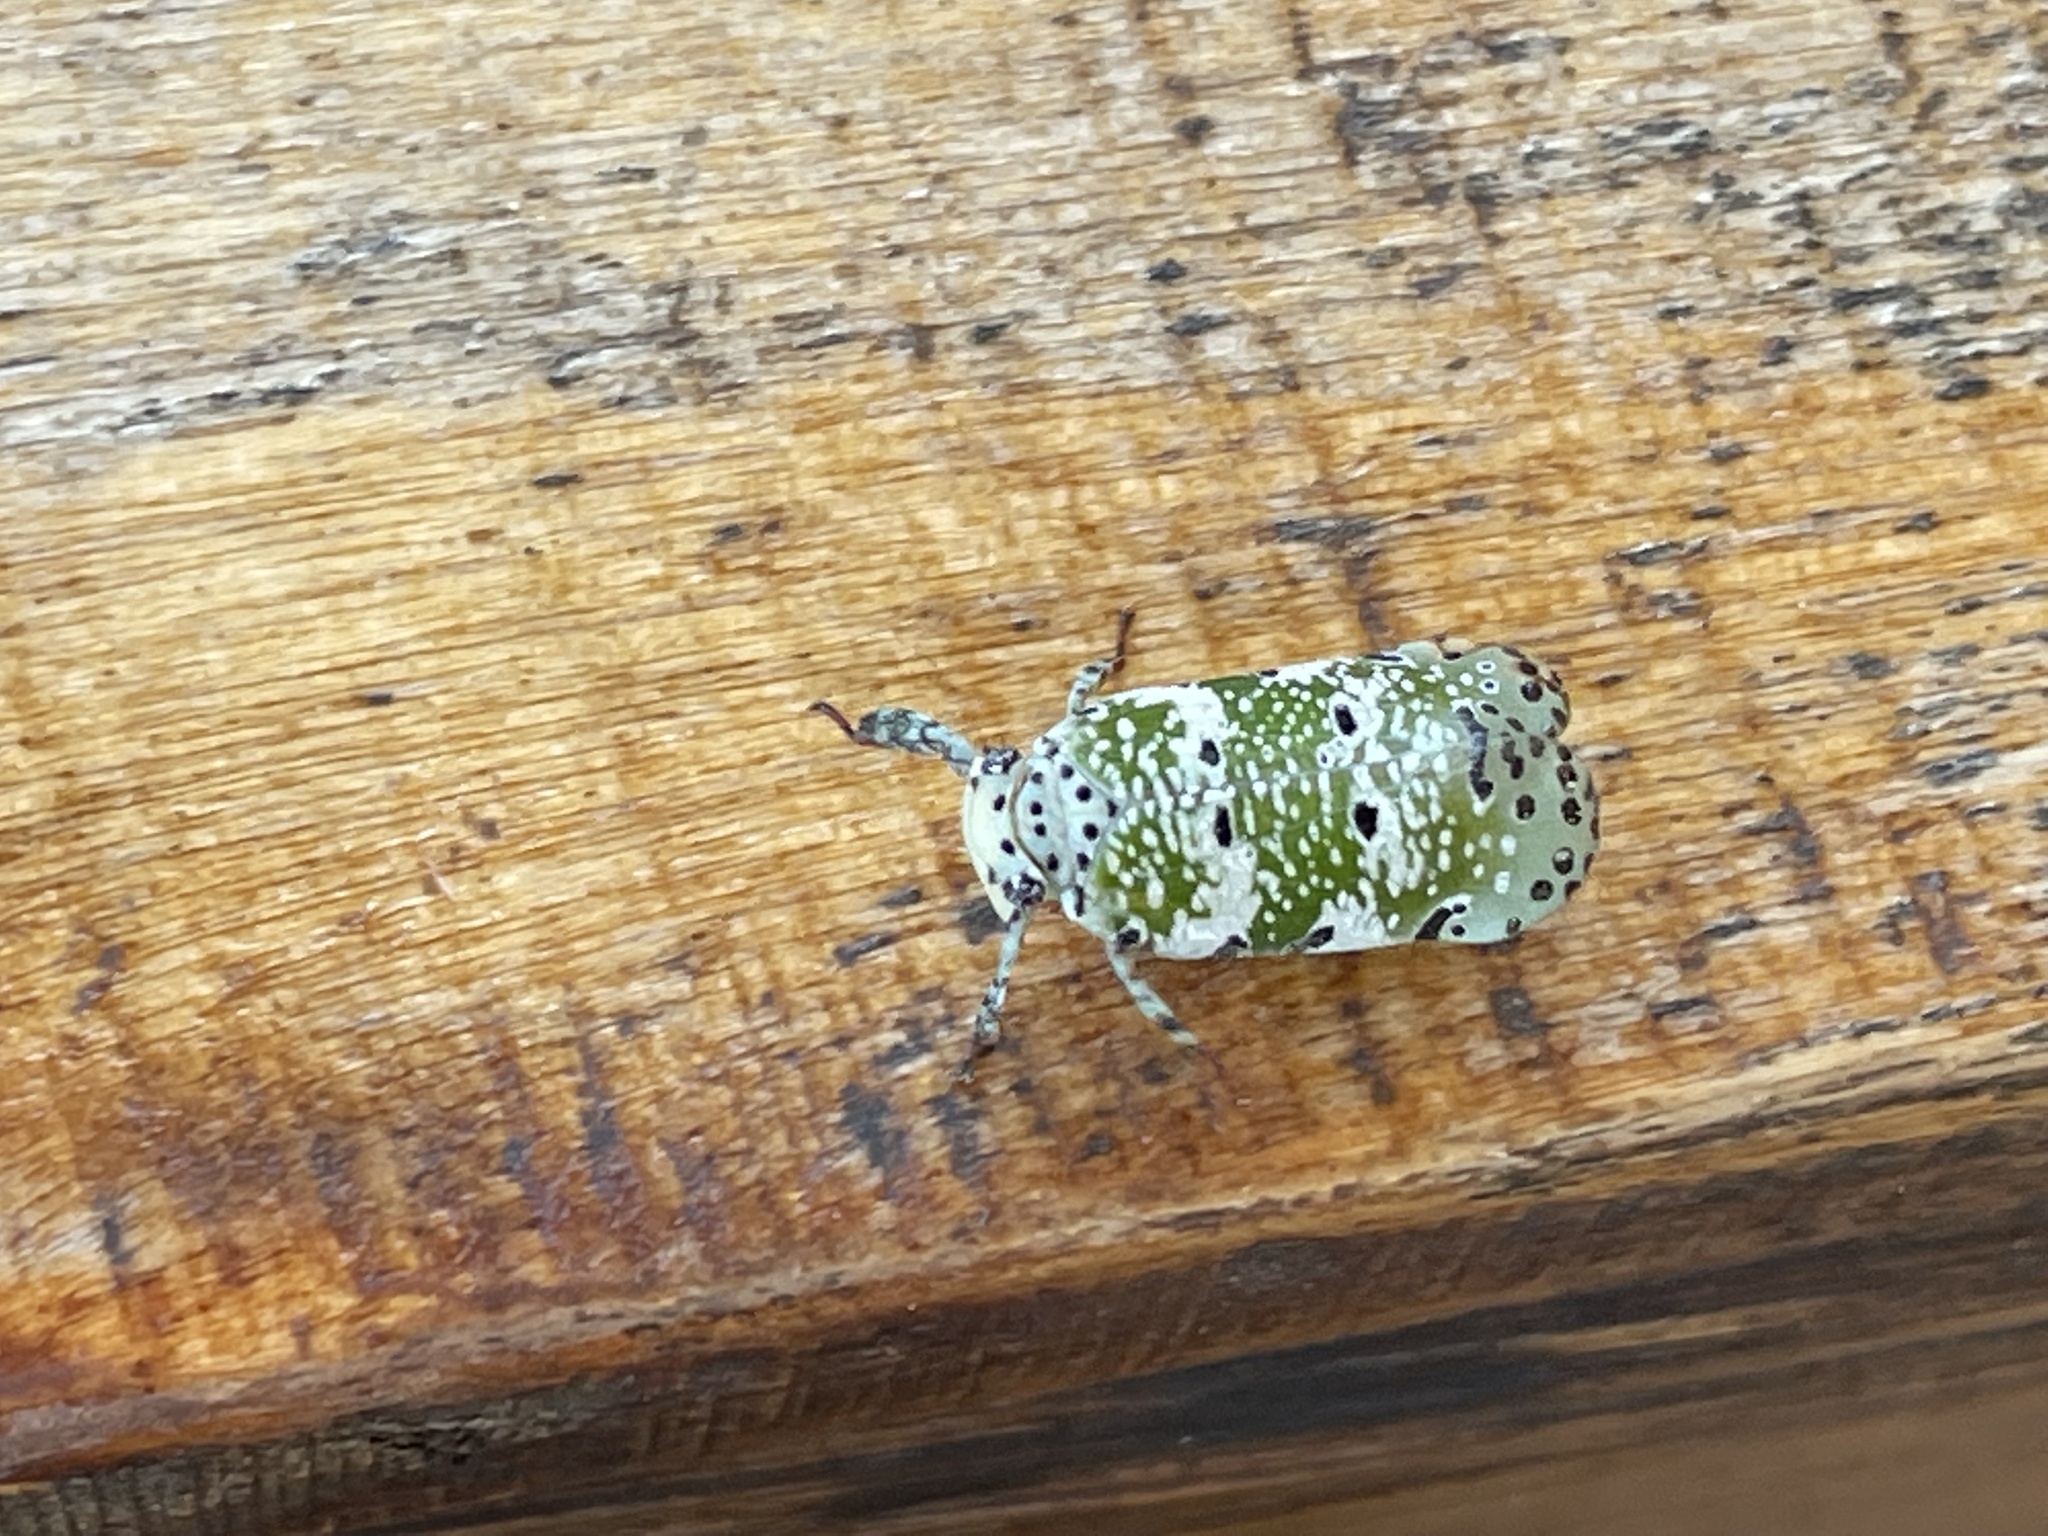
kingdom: Animalia
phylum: Arthropoda
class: Insecta
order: Hemiptera
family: Eurybrachidae
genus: Paropioxys
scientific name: Paropioxys jucundus
